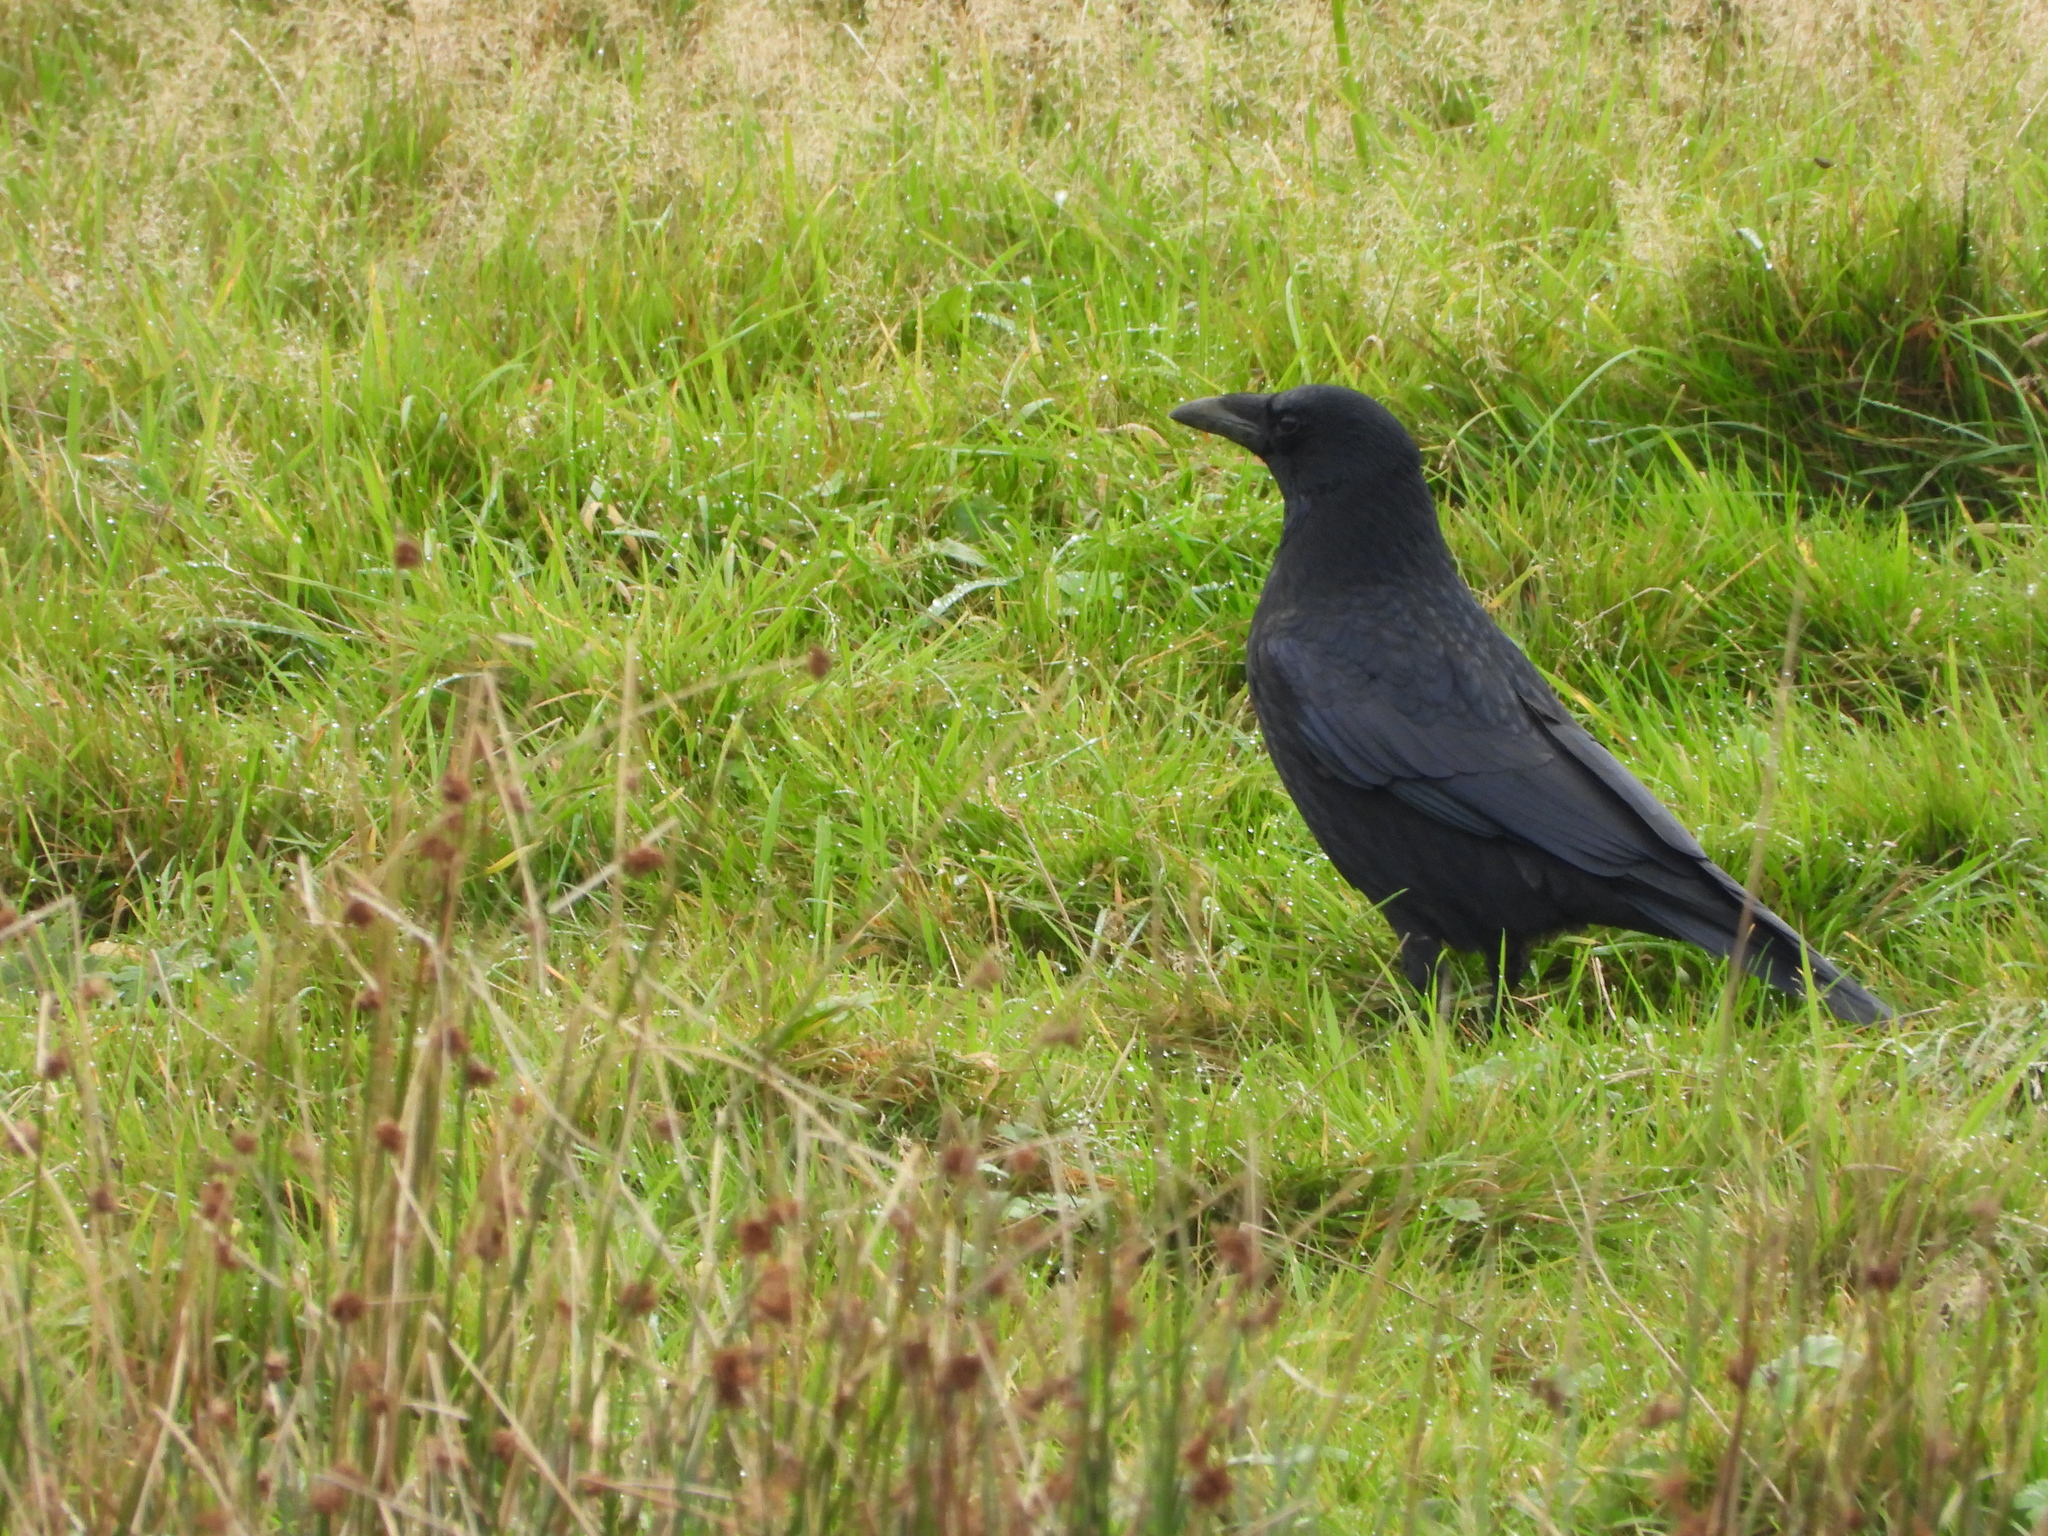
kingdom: Animalia
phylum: Chordata
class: Aves
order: Passeriformes
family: Corvidae
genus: Corvus
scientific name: Corvus corone
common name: Carrion crow
